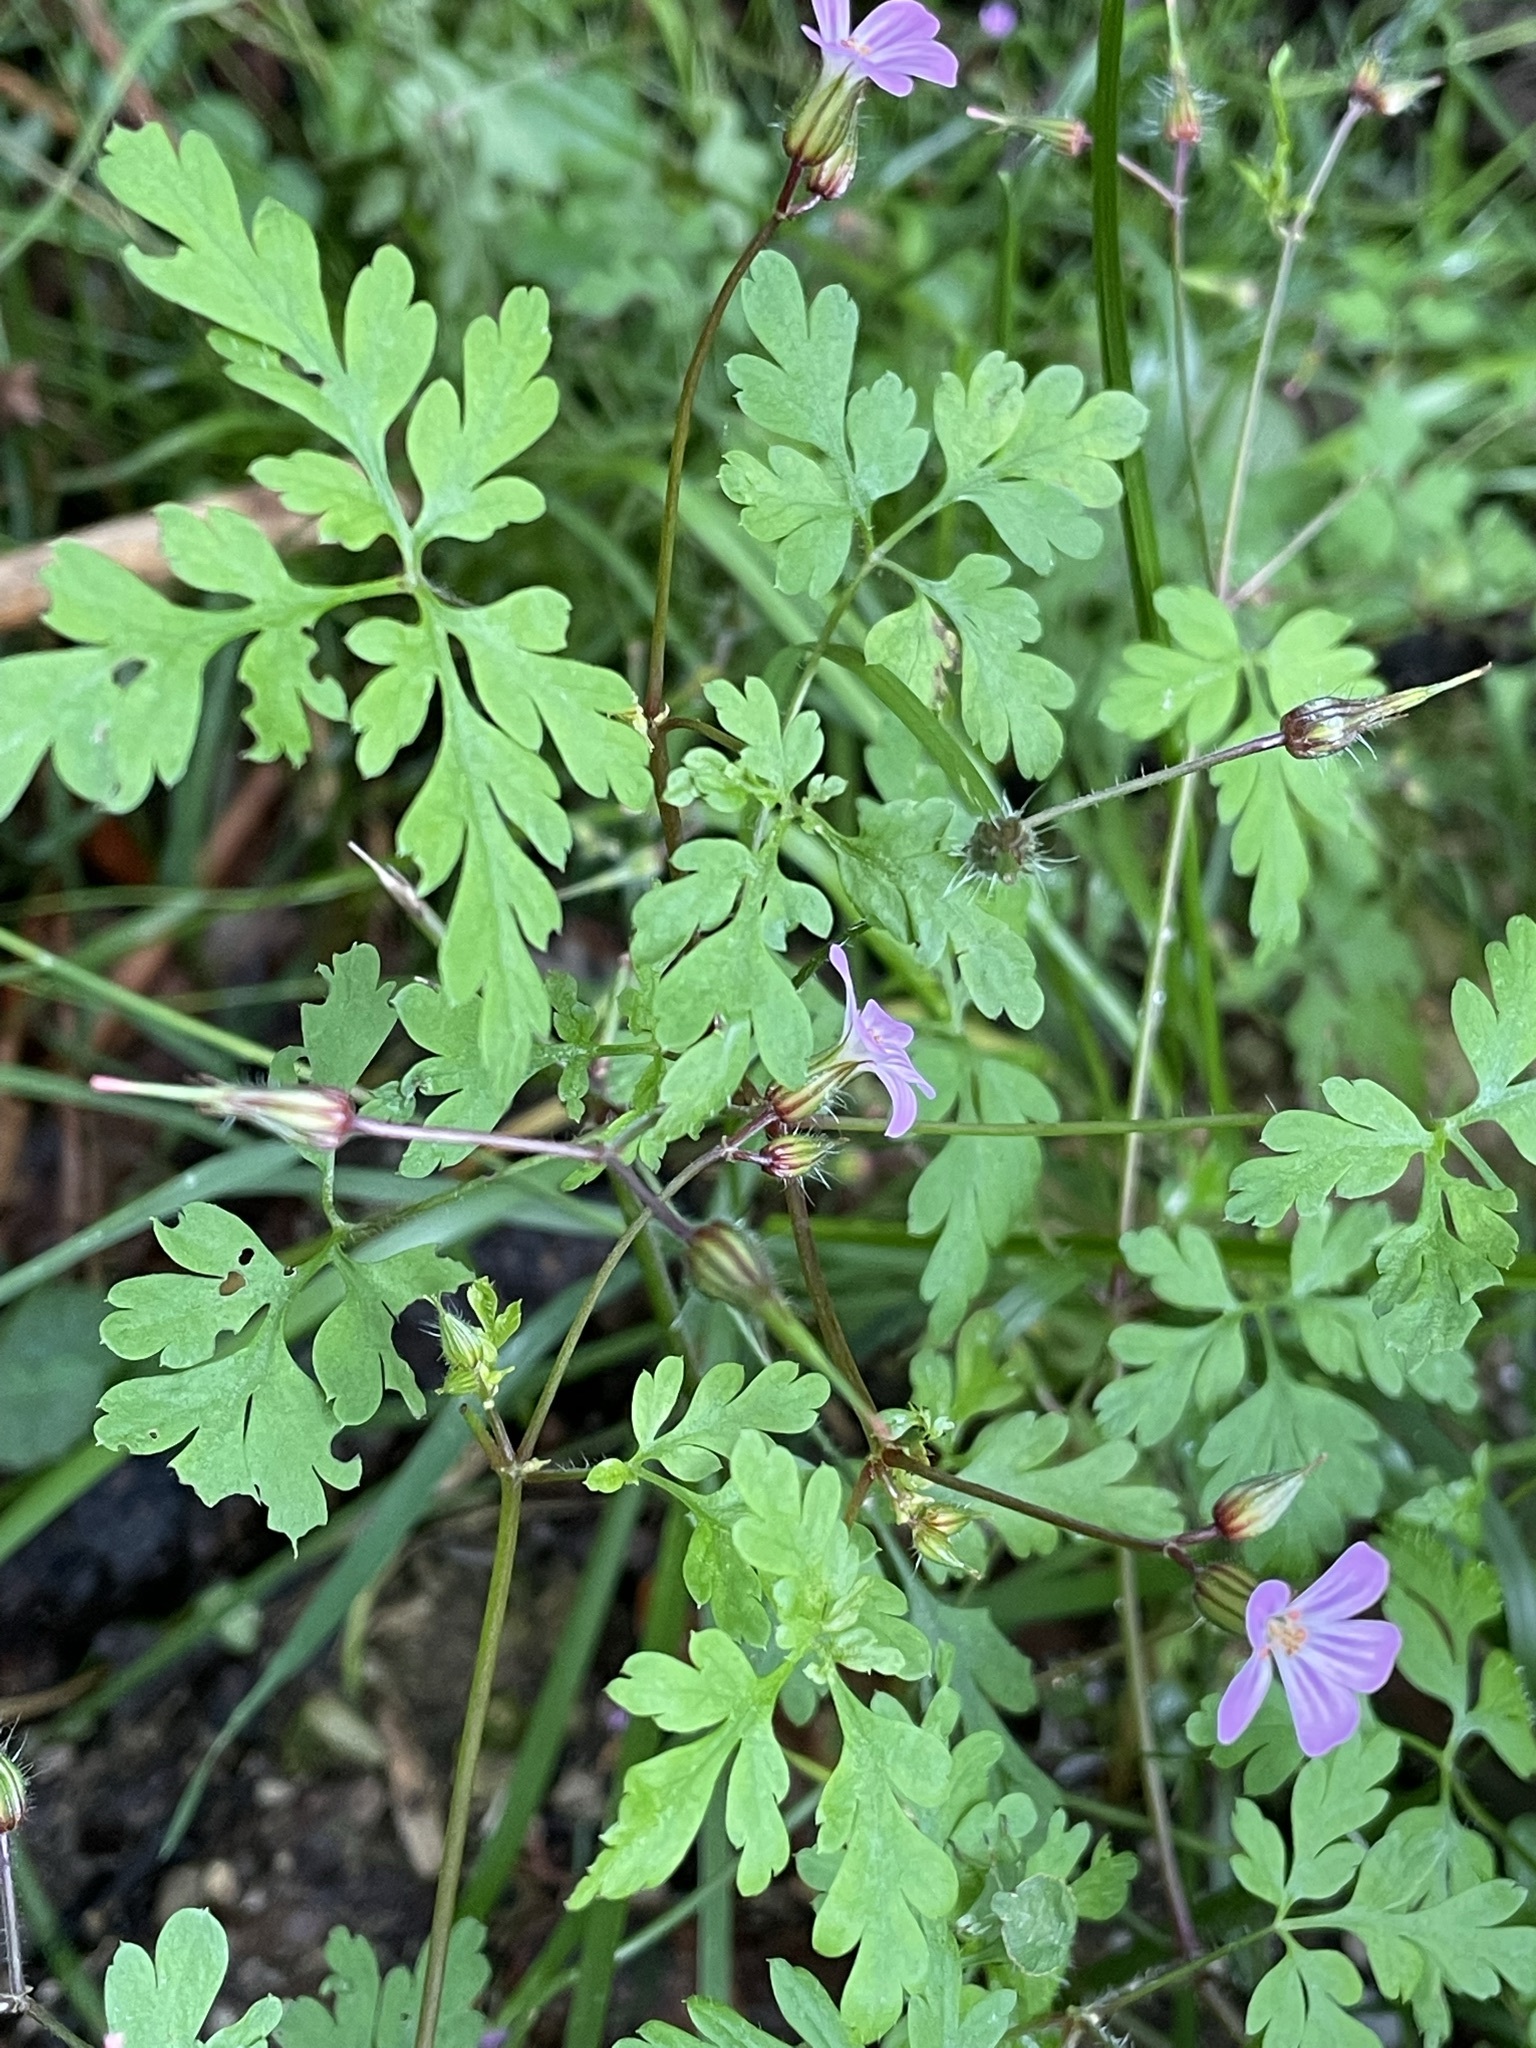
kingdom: Plantae
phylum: Tracheophyta
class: Magnoliopsida
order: Geraniales
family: Geraniaceae
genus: Geranium
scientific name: Geranium robertianum
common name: Herb-robert
